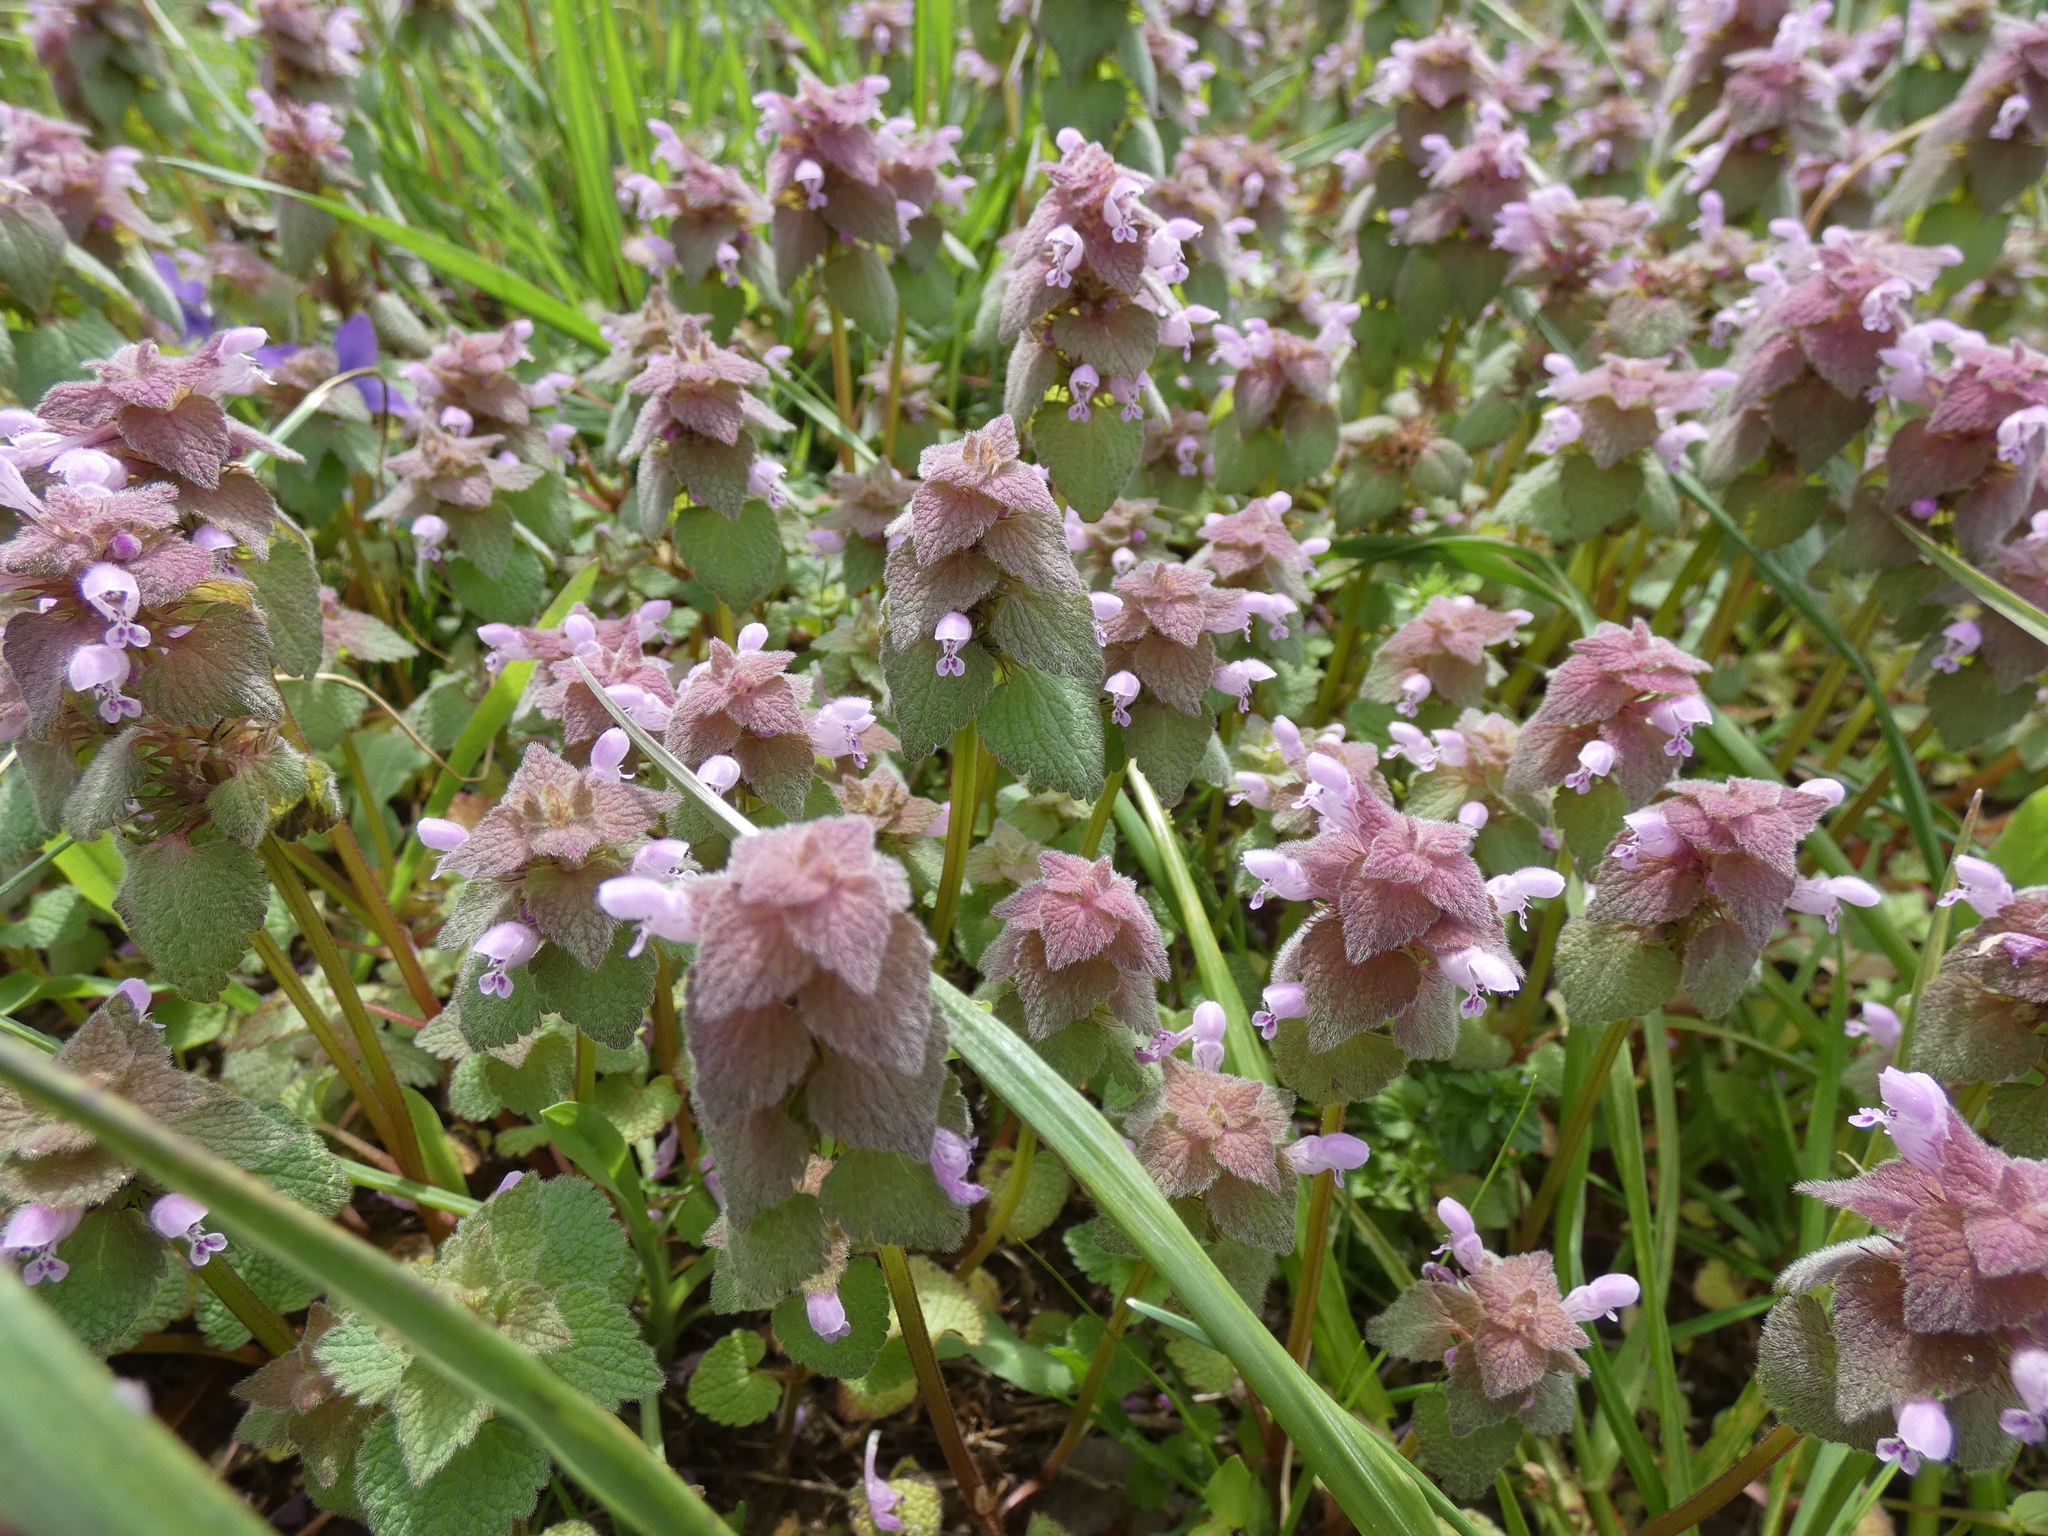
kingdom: Plantae
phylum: Tracheophyta
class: Magnoliopsida
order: Lamiales
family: Lamiaceae
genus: Lamium
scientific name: Lamium purpureum
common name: Red dead-nettle
